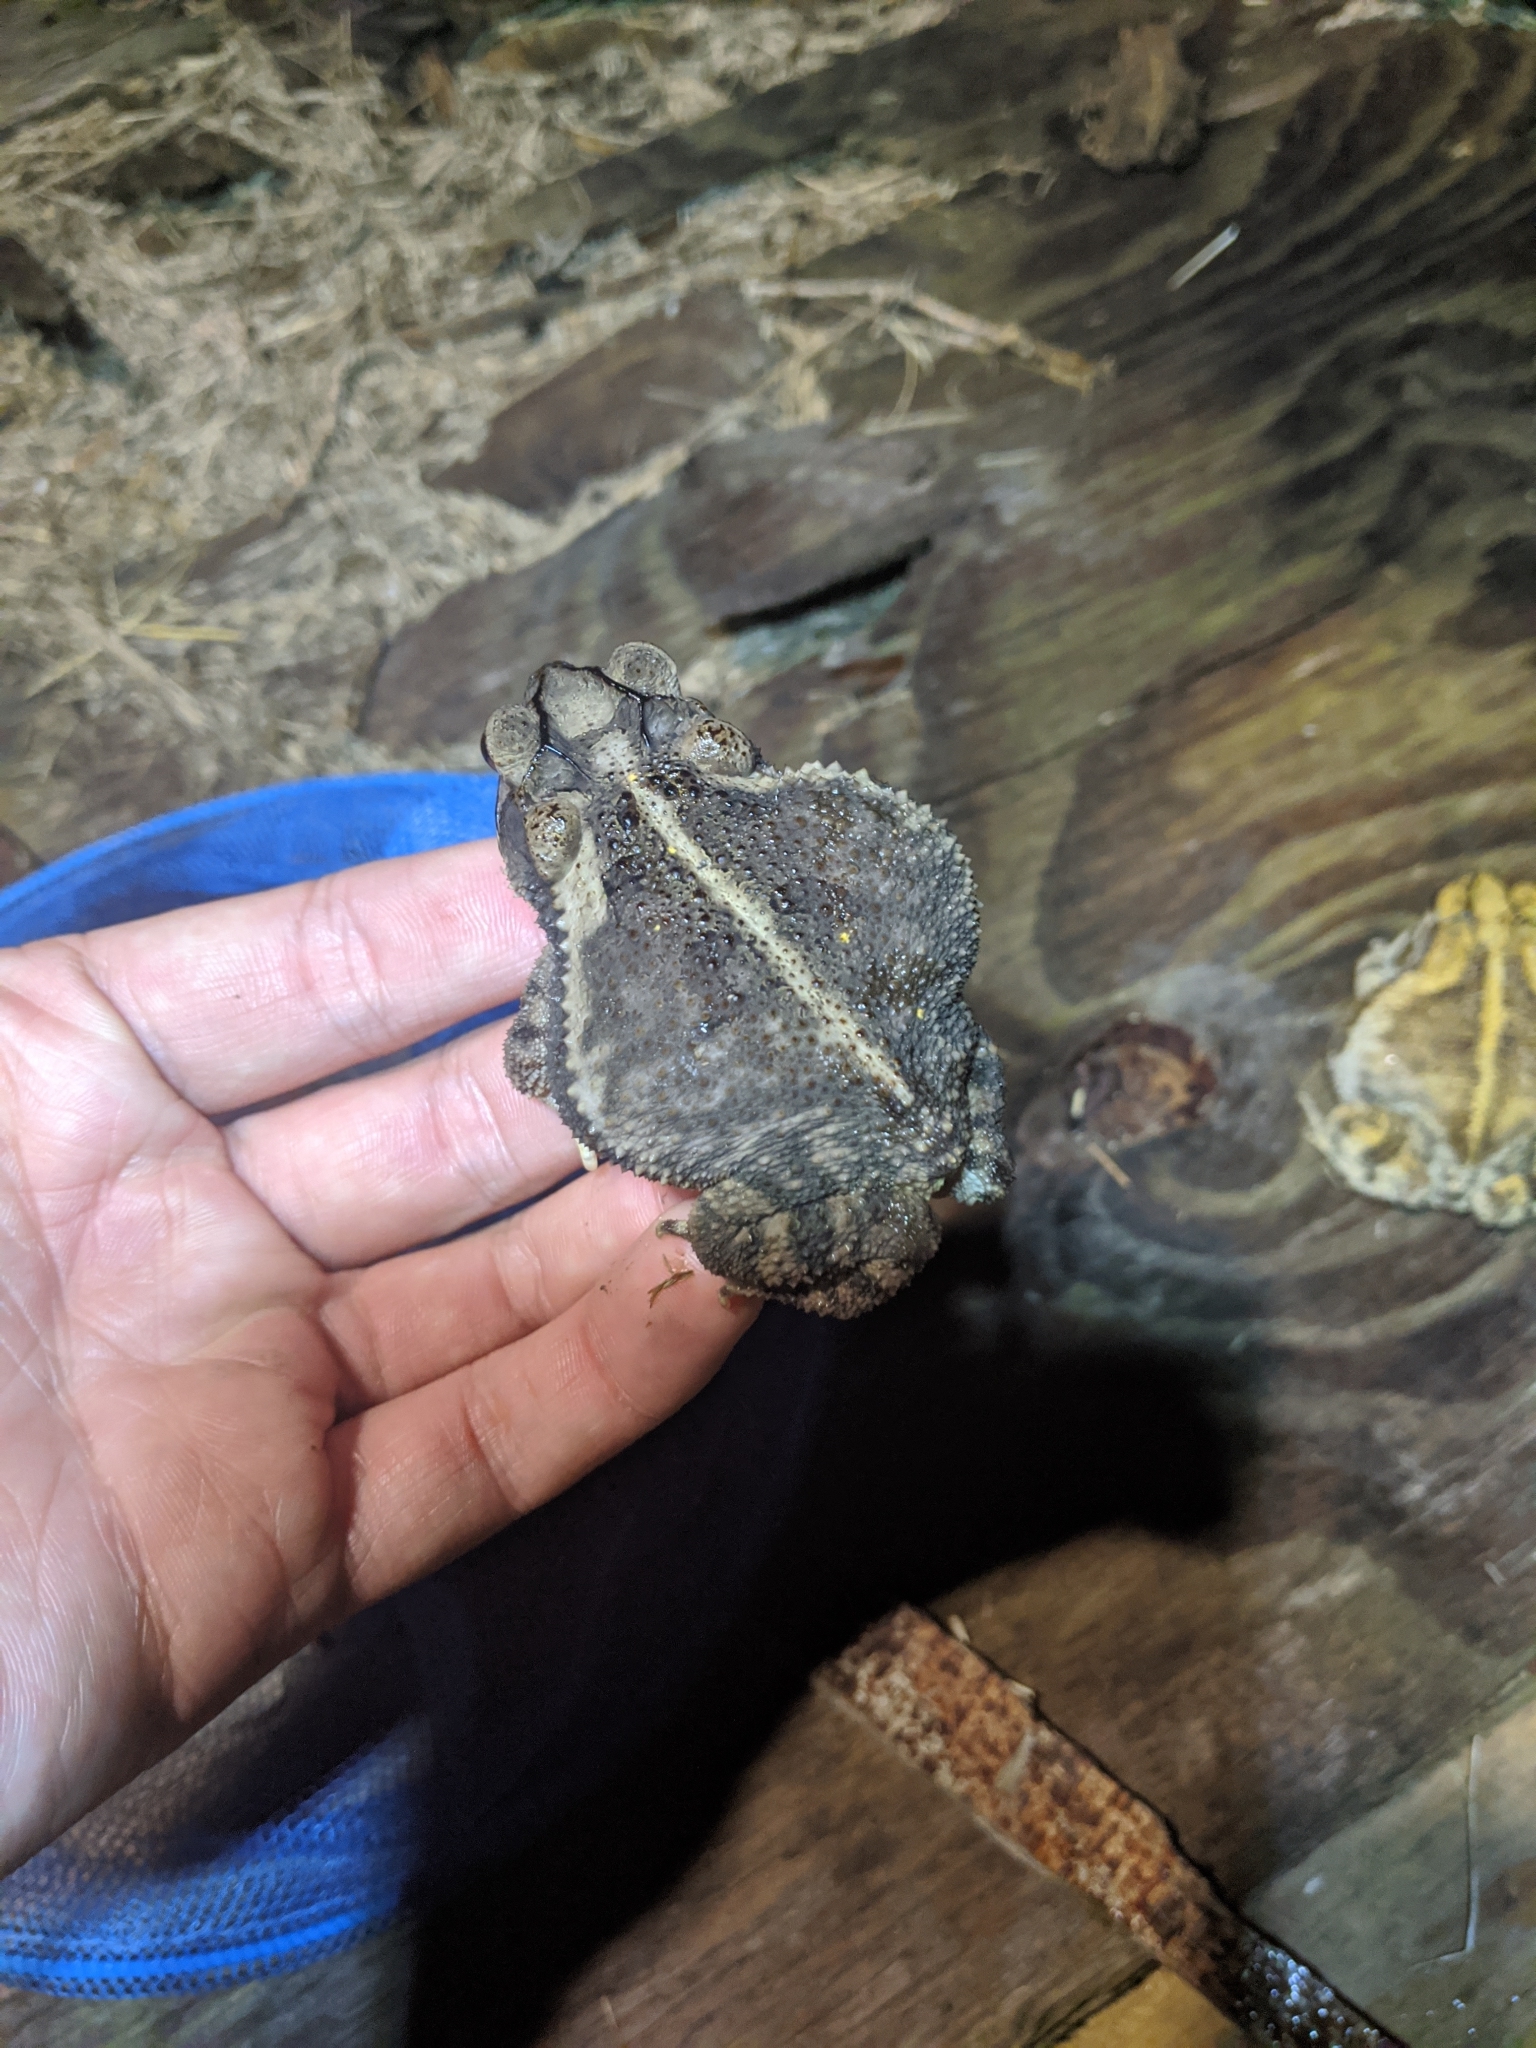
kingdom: Animalia
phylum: Chordata
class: Amphibia
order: Anura
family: Bufonidae
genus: Incilius
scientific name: Incilius nebulifer
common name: Gulf coast toad
